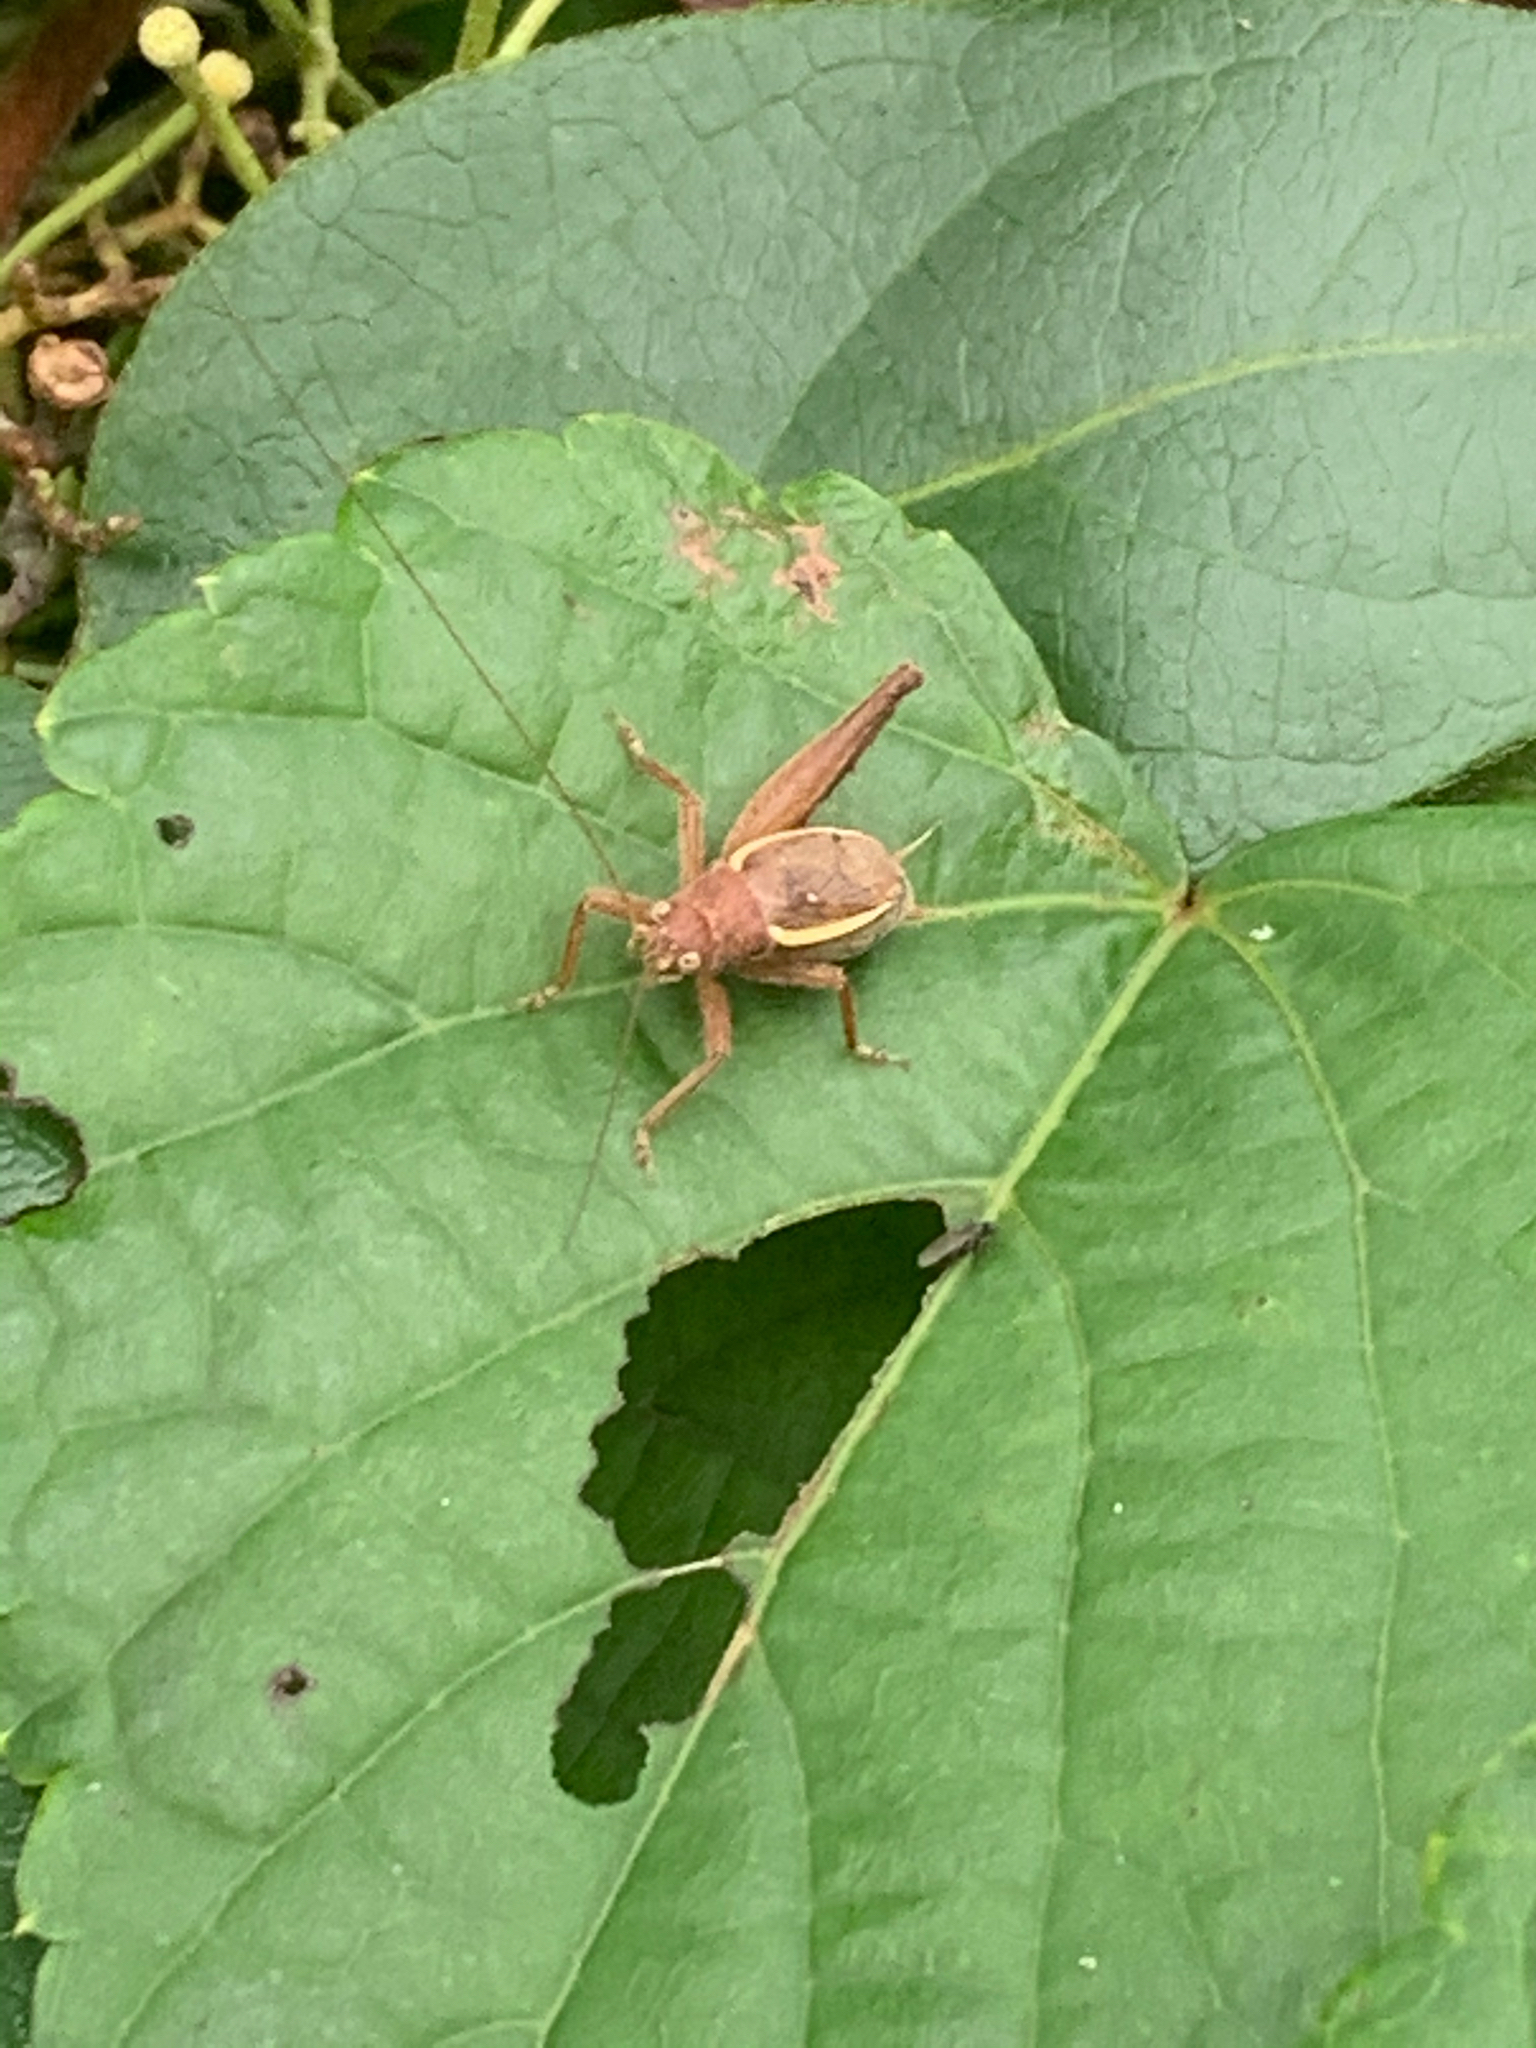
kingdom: Animalia
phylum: Arthropoda
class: Insecta
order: Orthoptera
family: Gryllidae
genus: Hapithus
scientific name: Hapithus agitator
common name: Restless bush cricket
